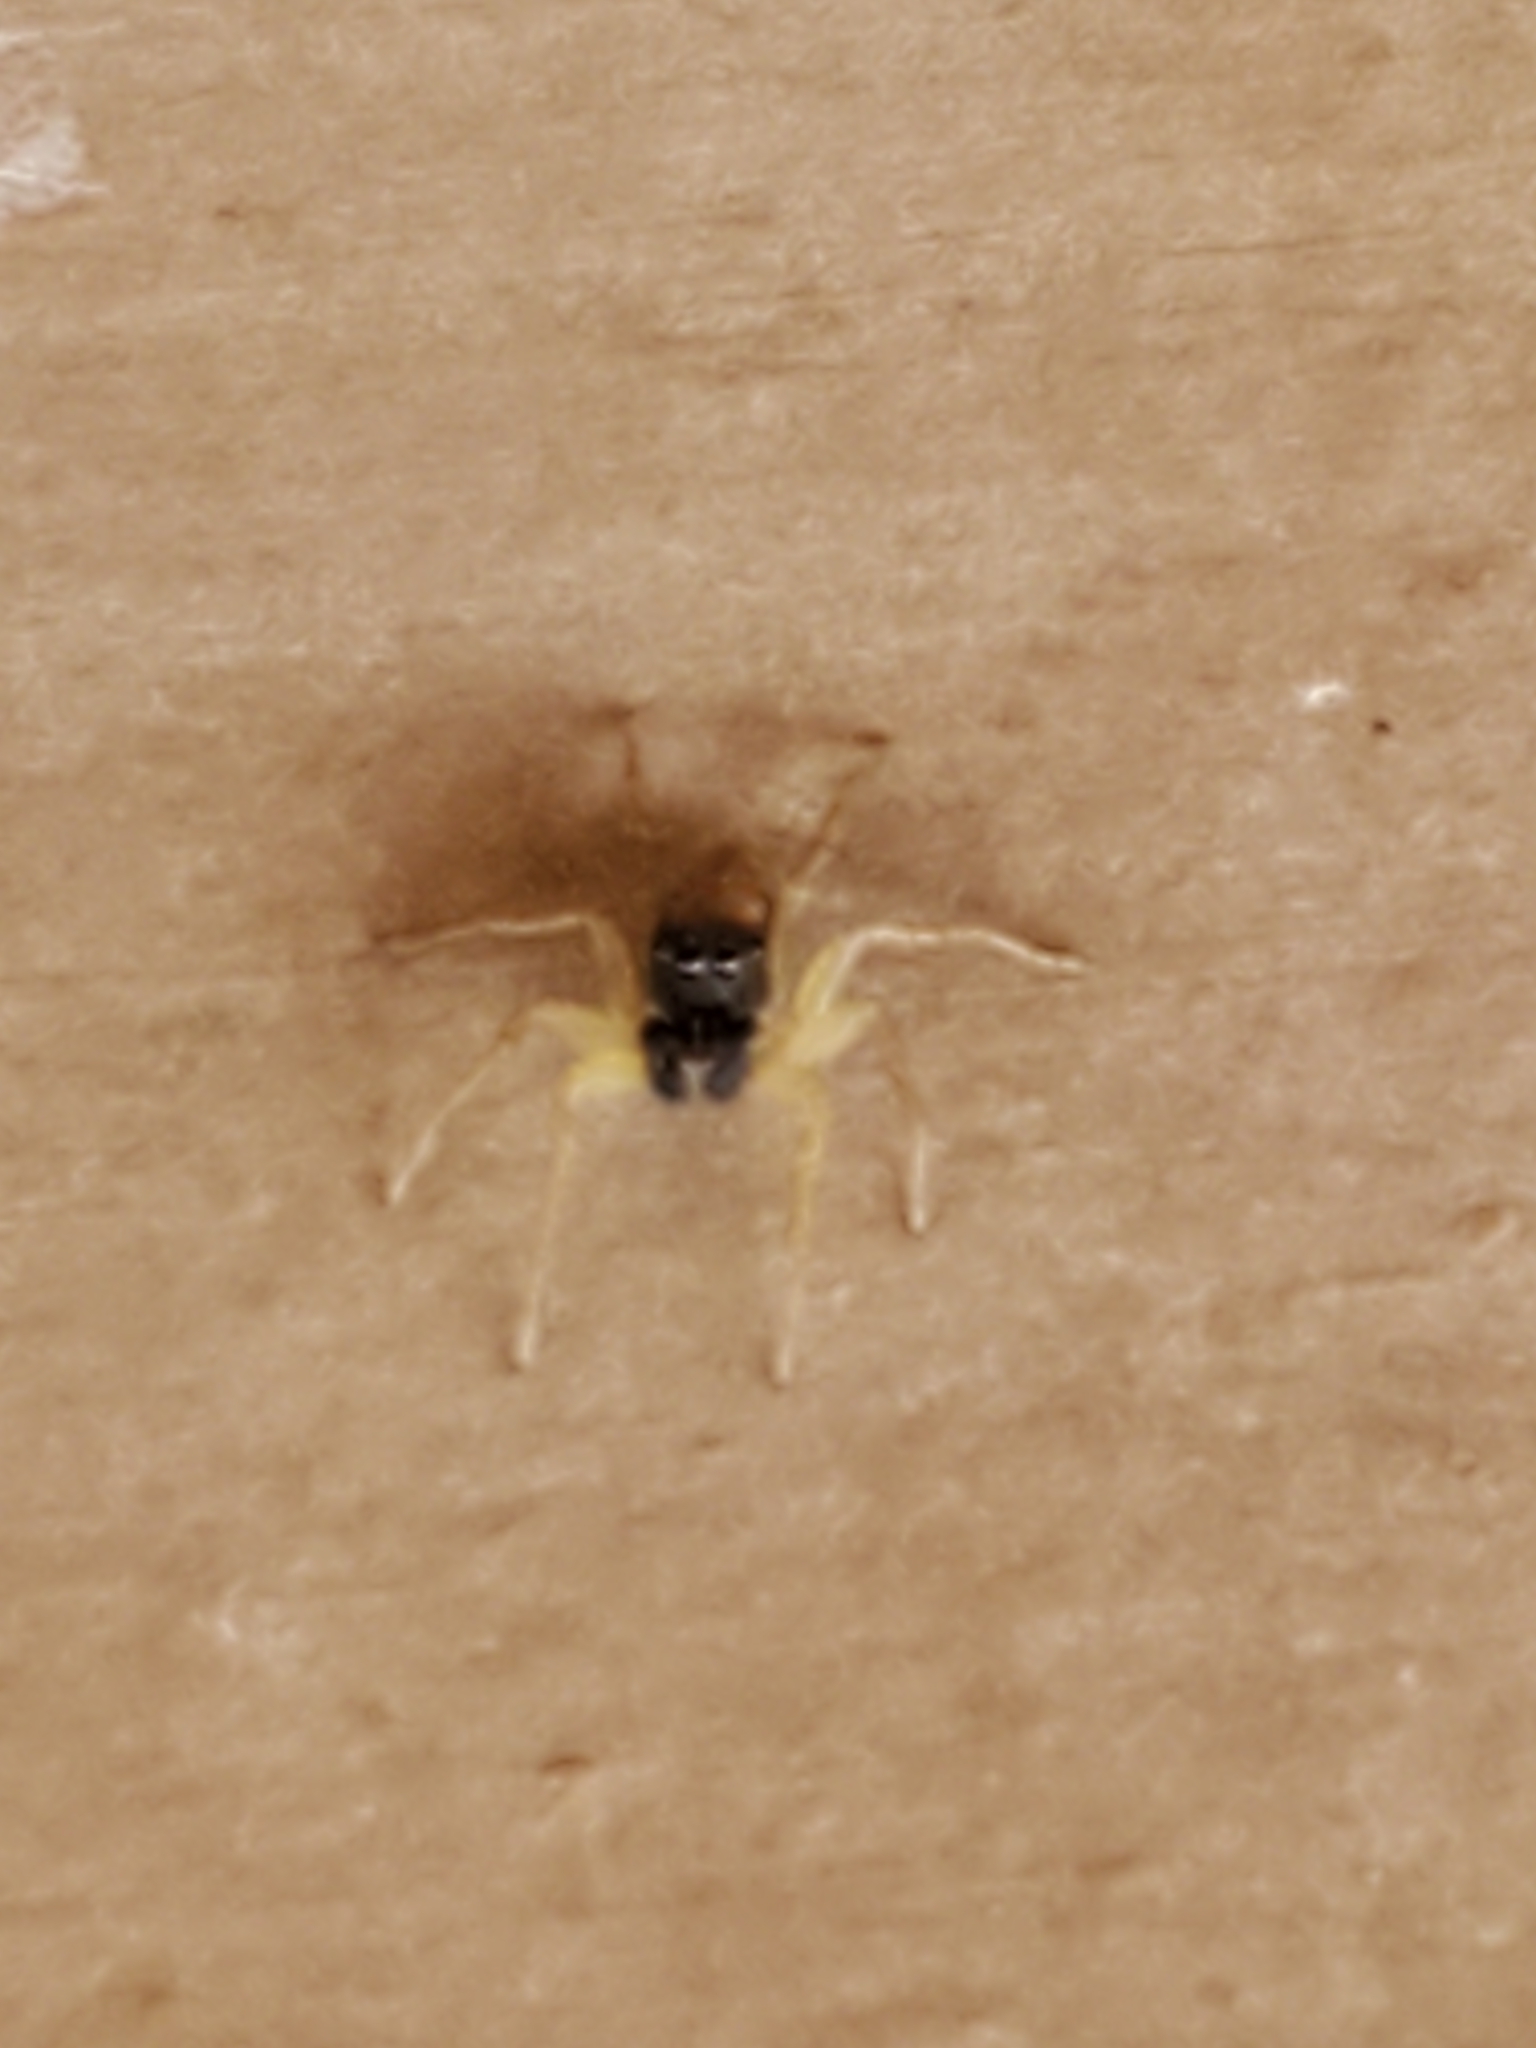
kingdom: Animalia
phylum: Arthropoda
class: Arachnida
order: Araneae
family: Salticidae
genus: Maevia
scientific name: Maevia inclemens
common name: Dimorphic jumper
